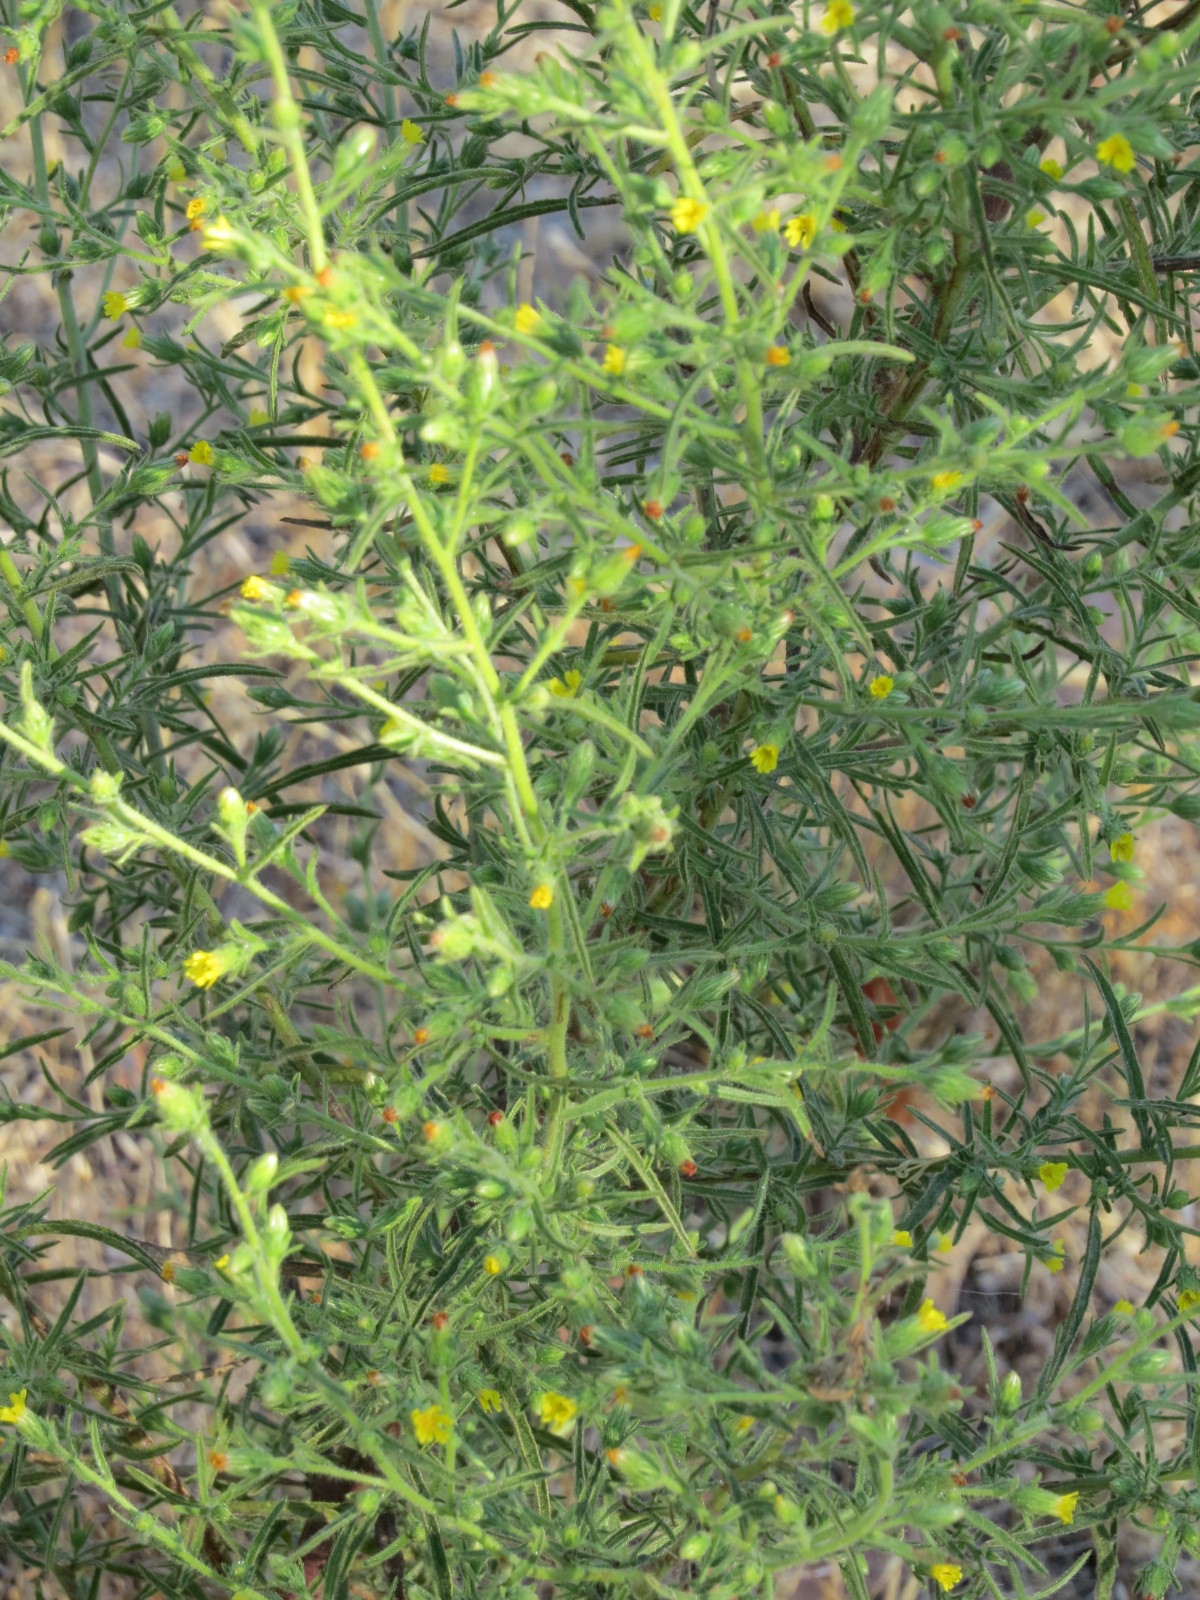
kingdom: Plantae
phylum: Tracheophyta
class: Magnoliopsida
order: Asterales
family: Asteraceae
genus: Dittrichia
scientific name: Dittrichia graveolens
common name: Stinking fleabane
